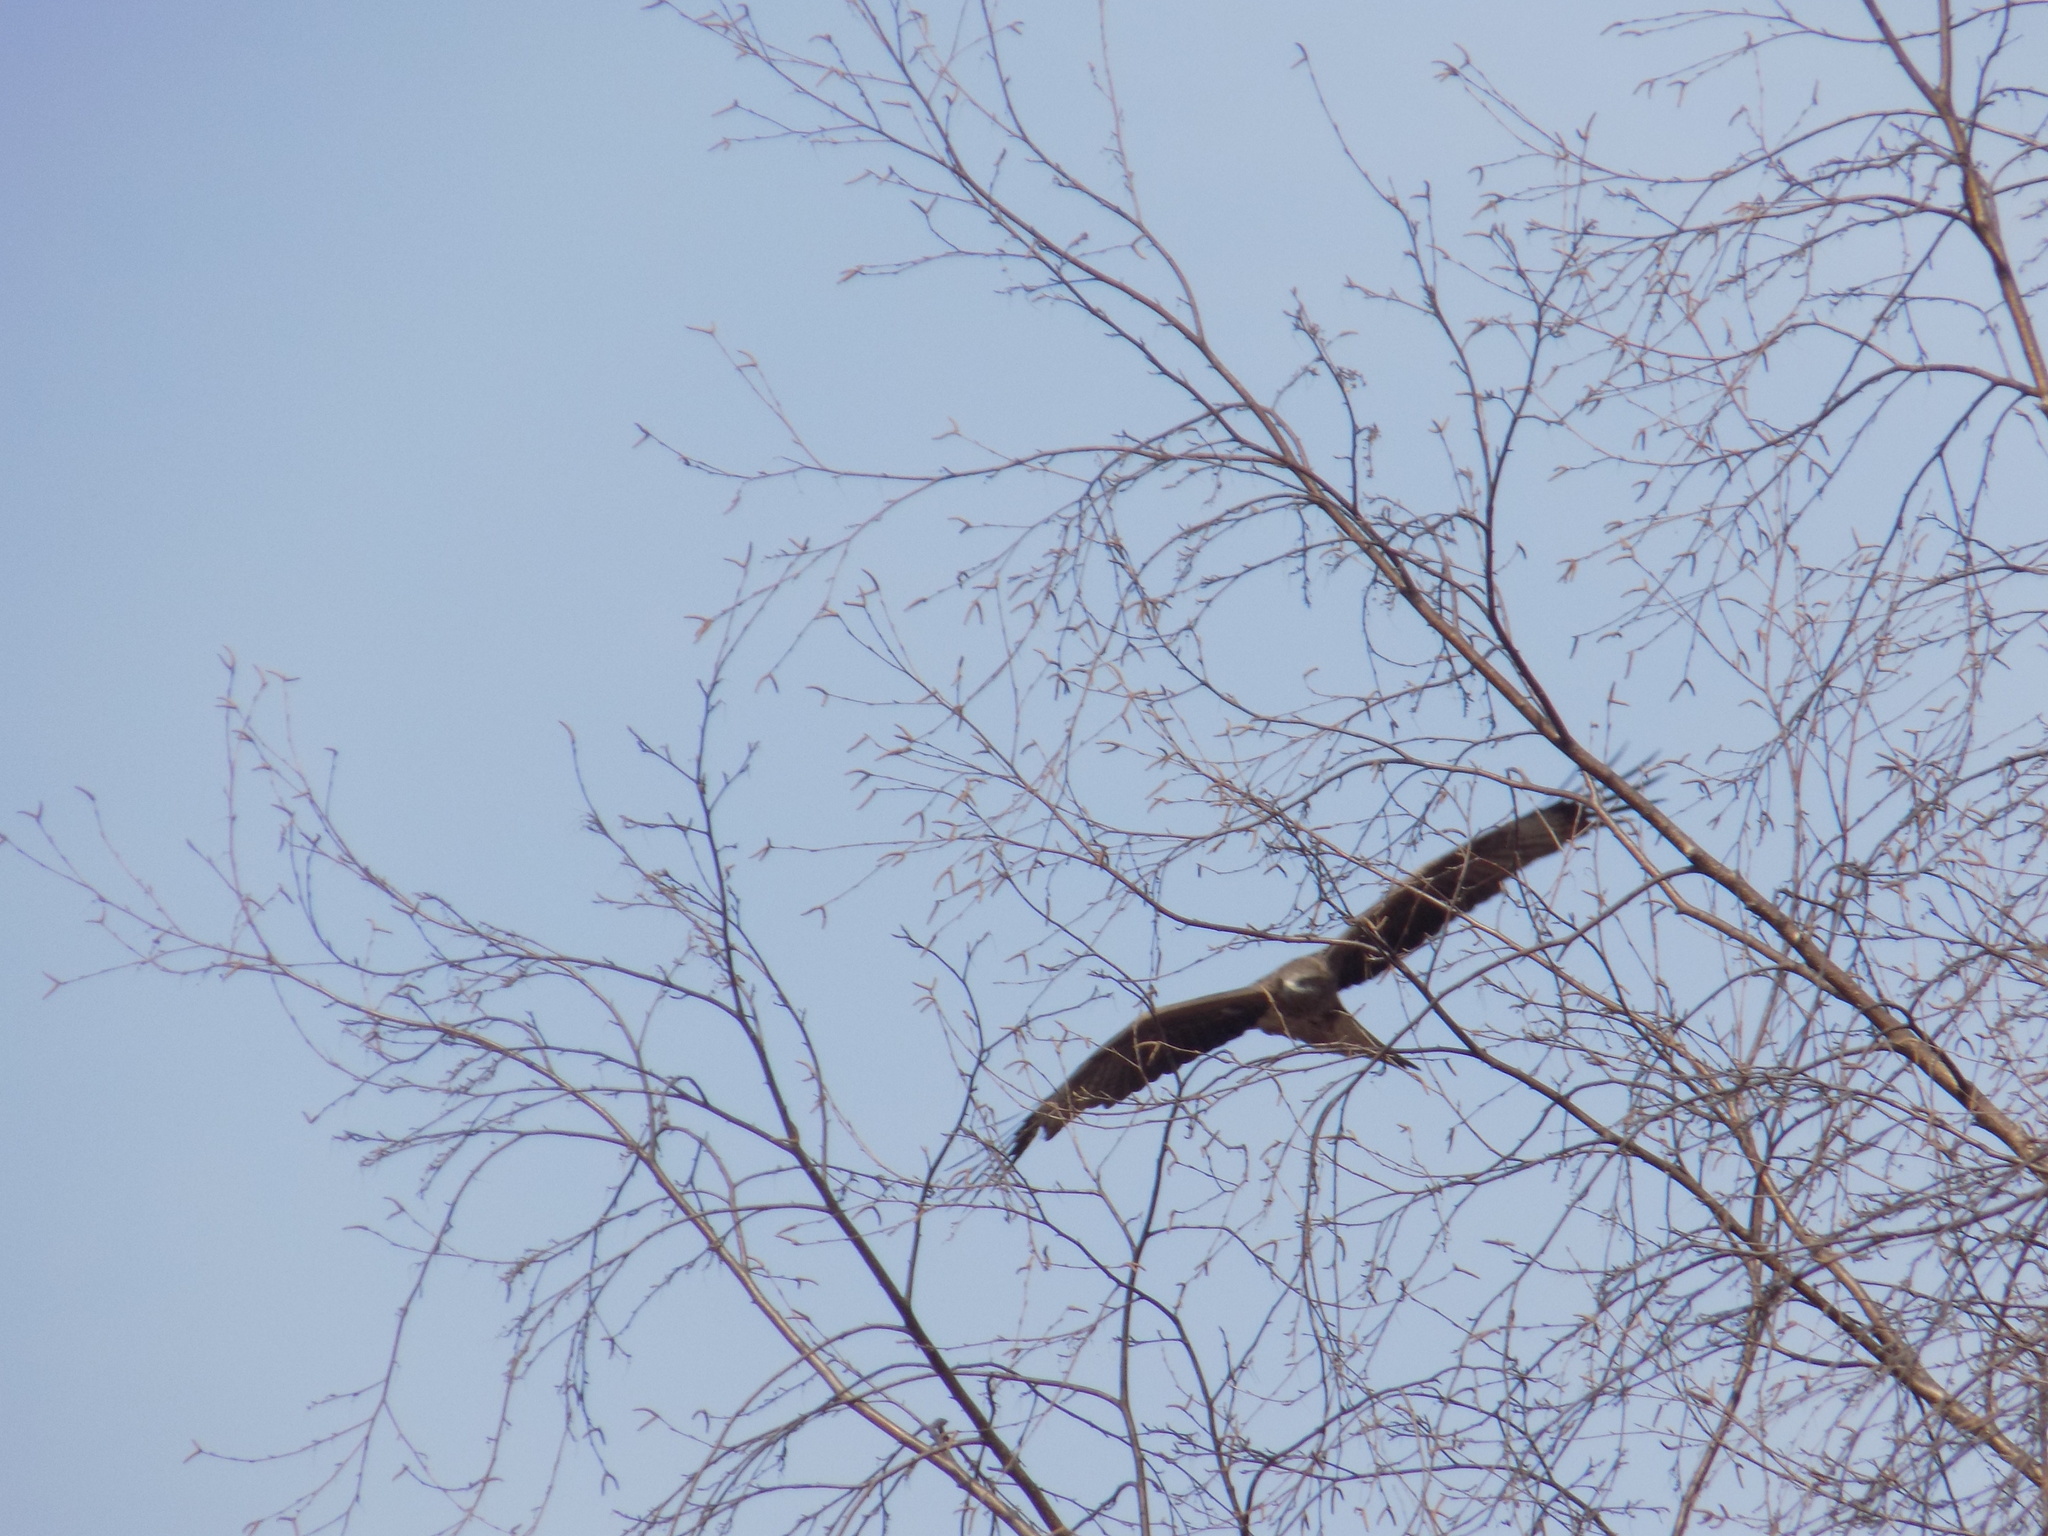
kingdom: Animalia
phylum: Chordata
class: Aves
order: Accipitriformes
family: Accipitridae
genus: Milvus
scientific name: Milvus migrans
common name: Black kite
